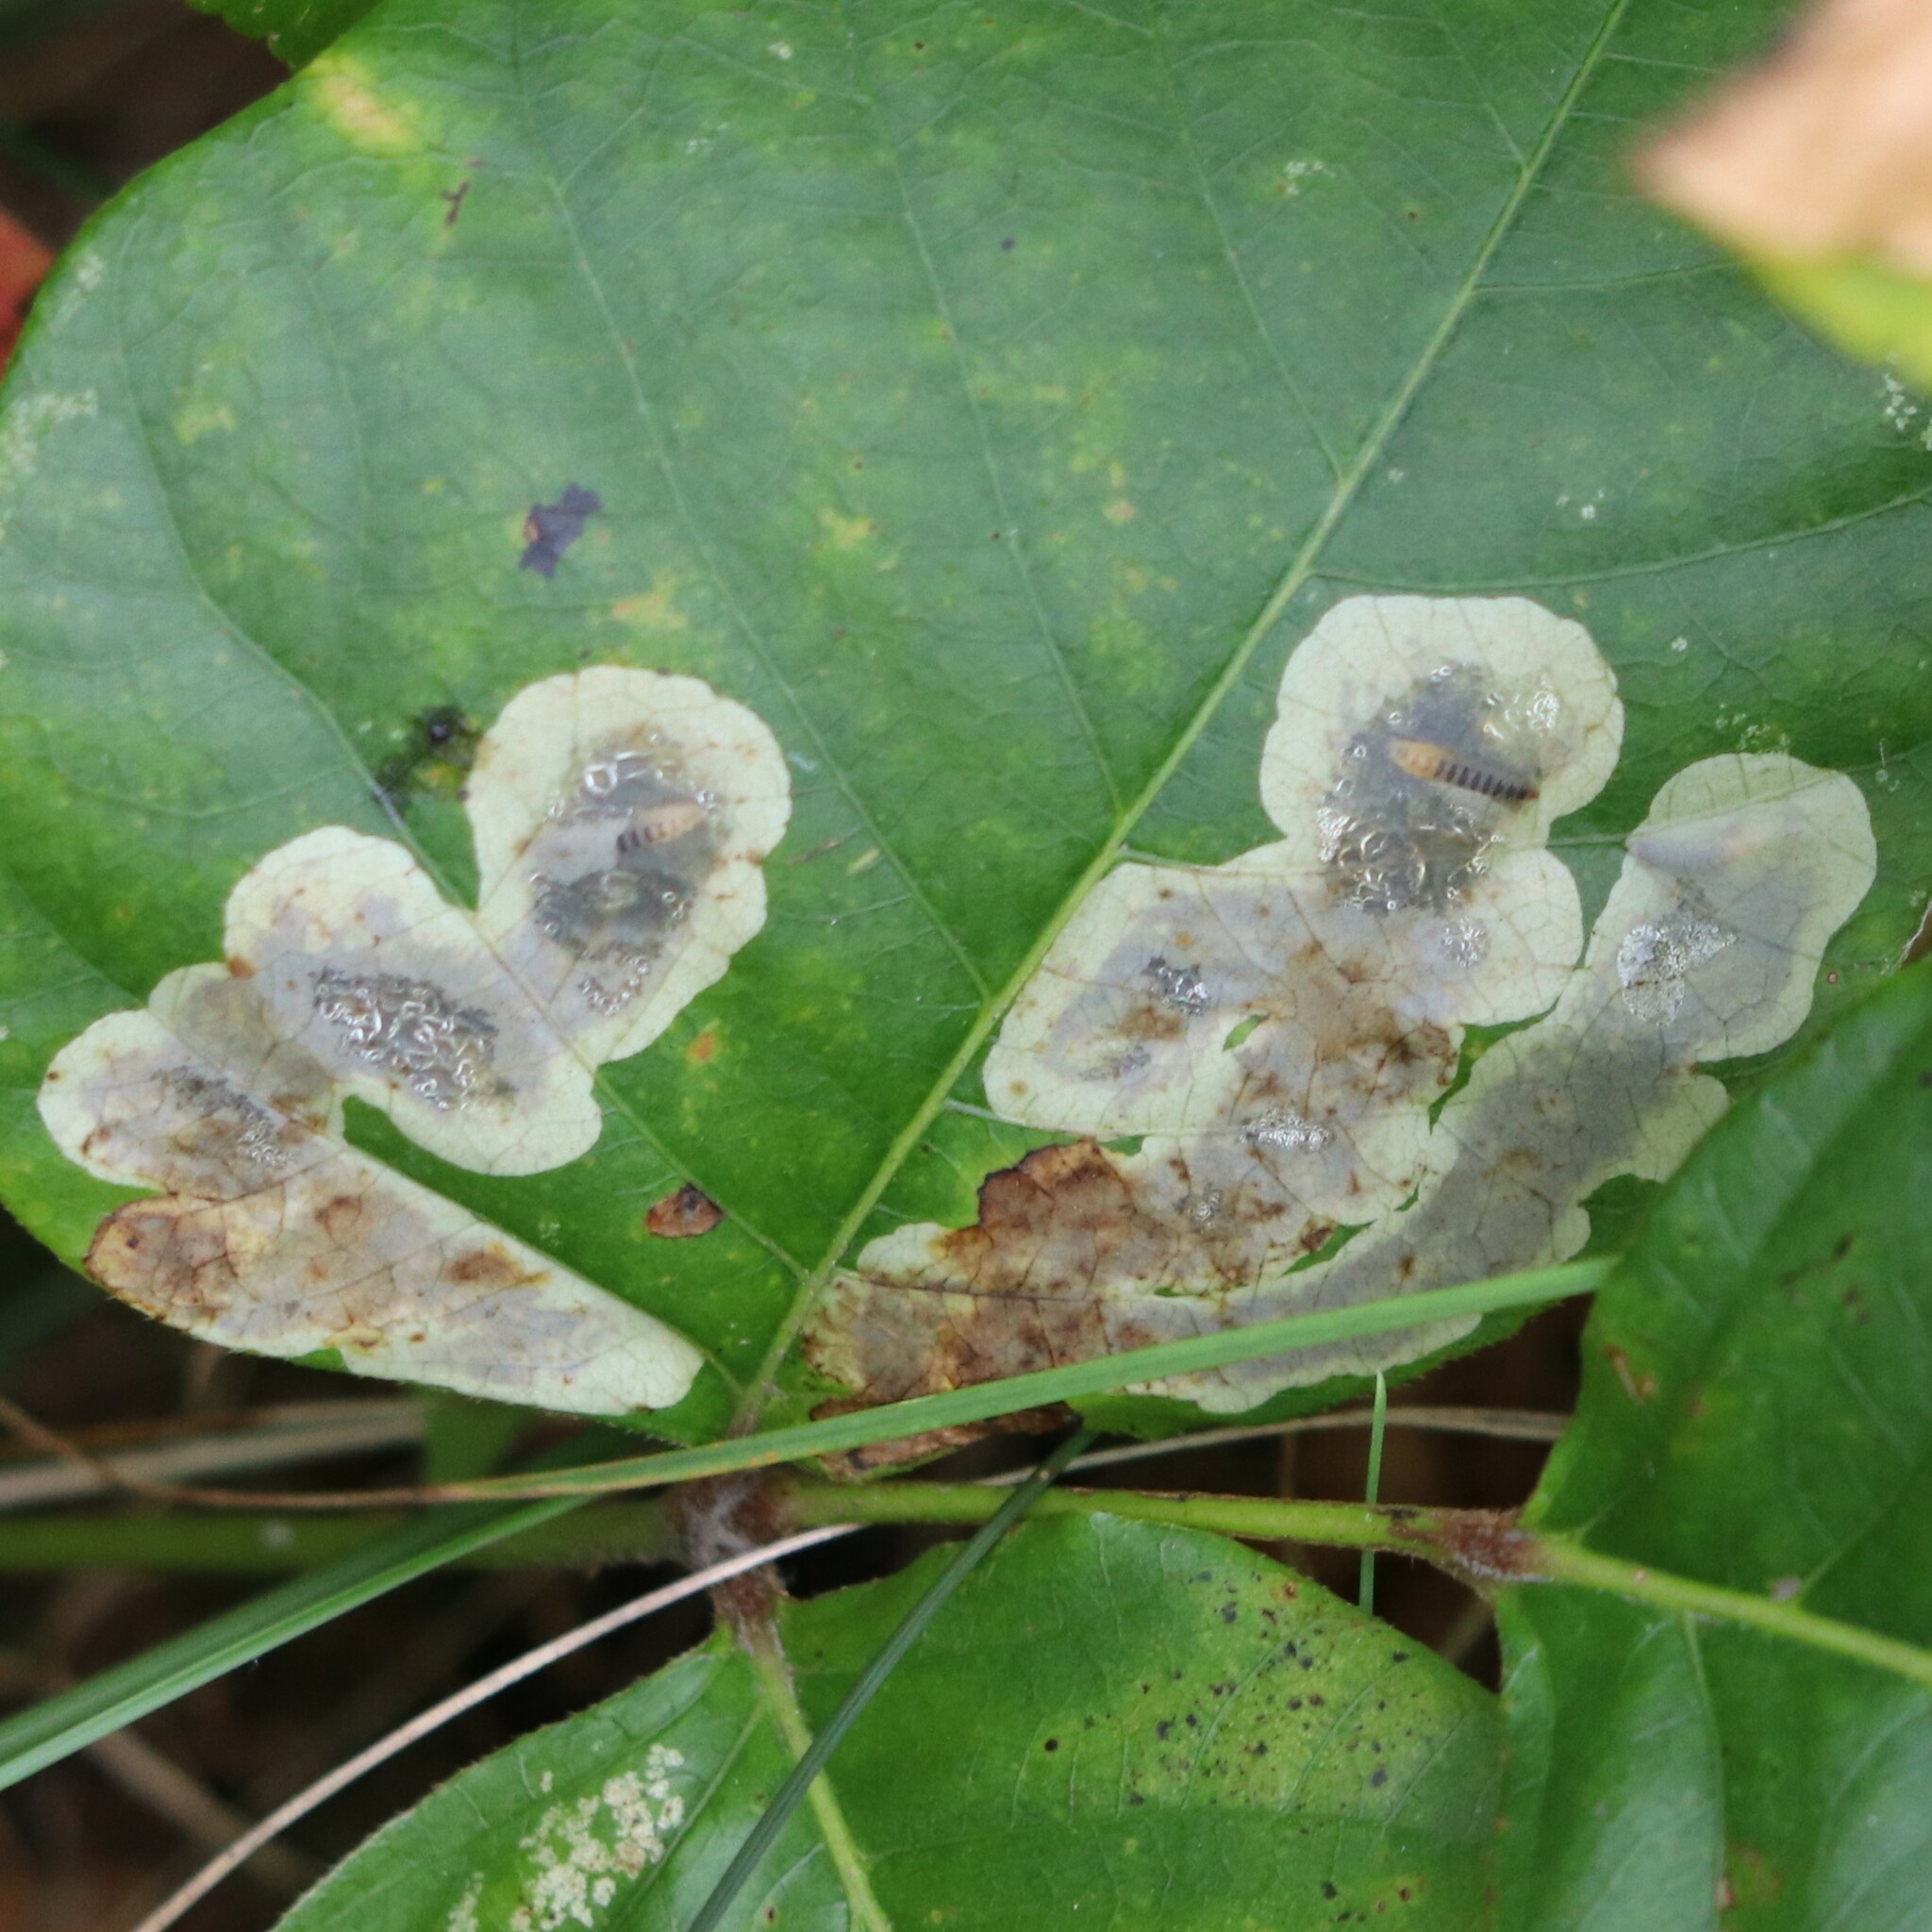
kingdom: Animalia
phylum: Arthropoda
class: Insecta
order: Lepidoptera
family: Gracillariidae
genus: Cameraria
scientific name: Cameraria guttifinitella
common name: Poison ivy leaf-miner moth
